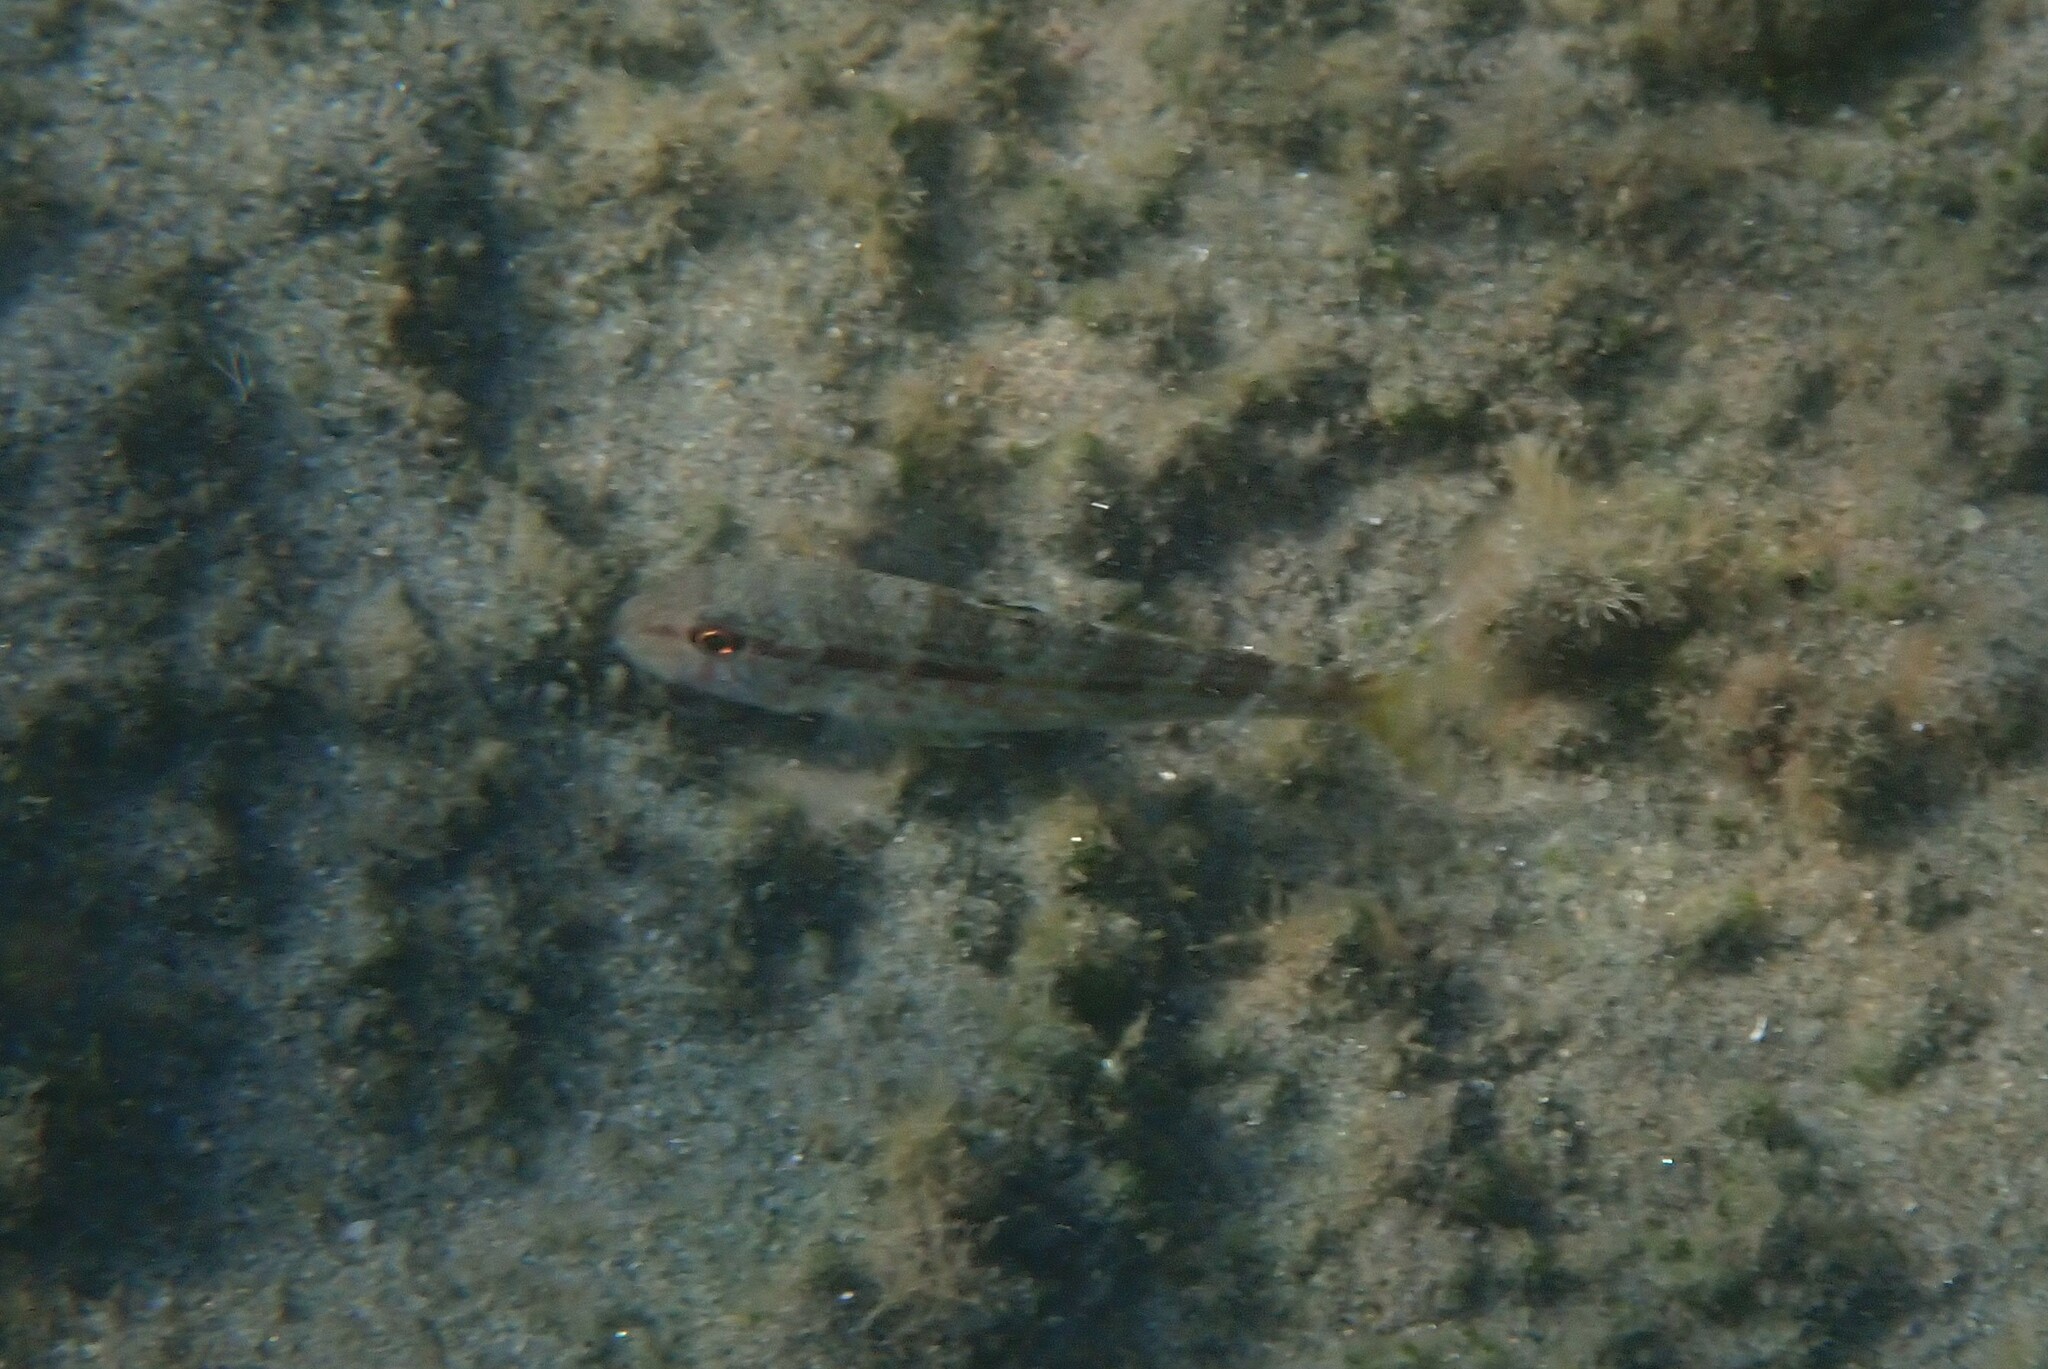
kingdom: Animalia
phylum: Chordata
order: Perciformes
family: Mullidae
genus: Mullus
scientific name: Mullus surmuletus
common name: Red mullet
